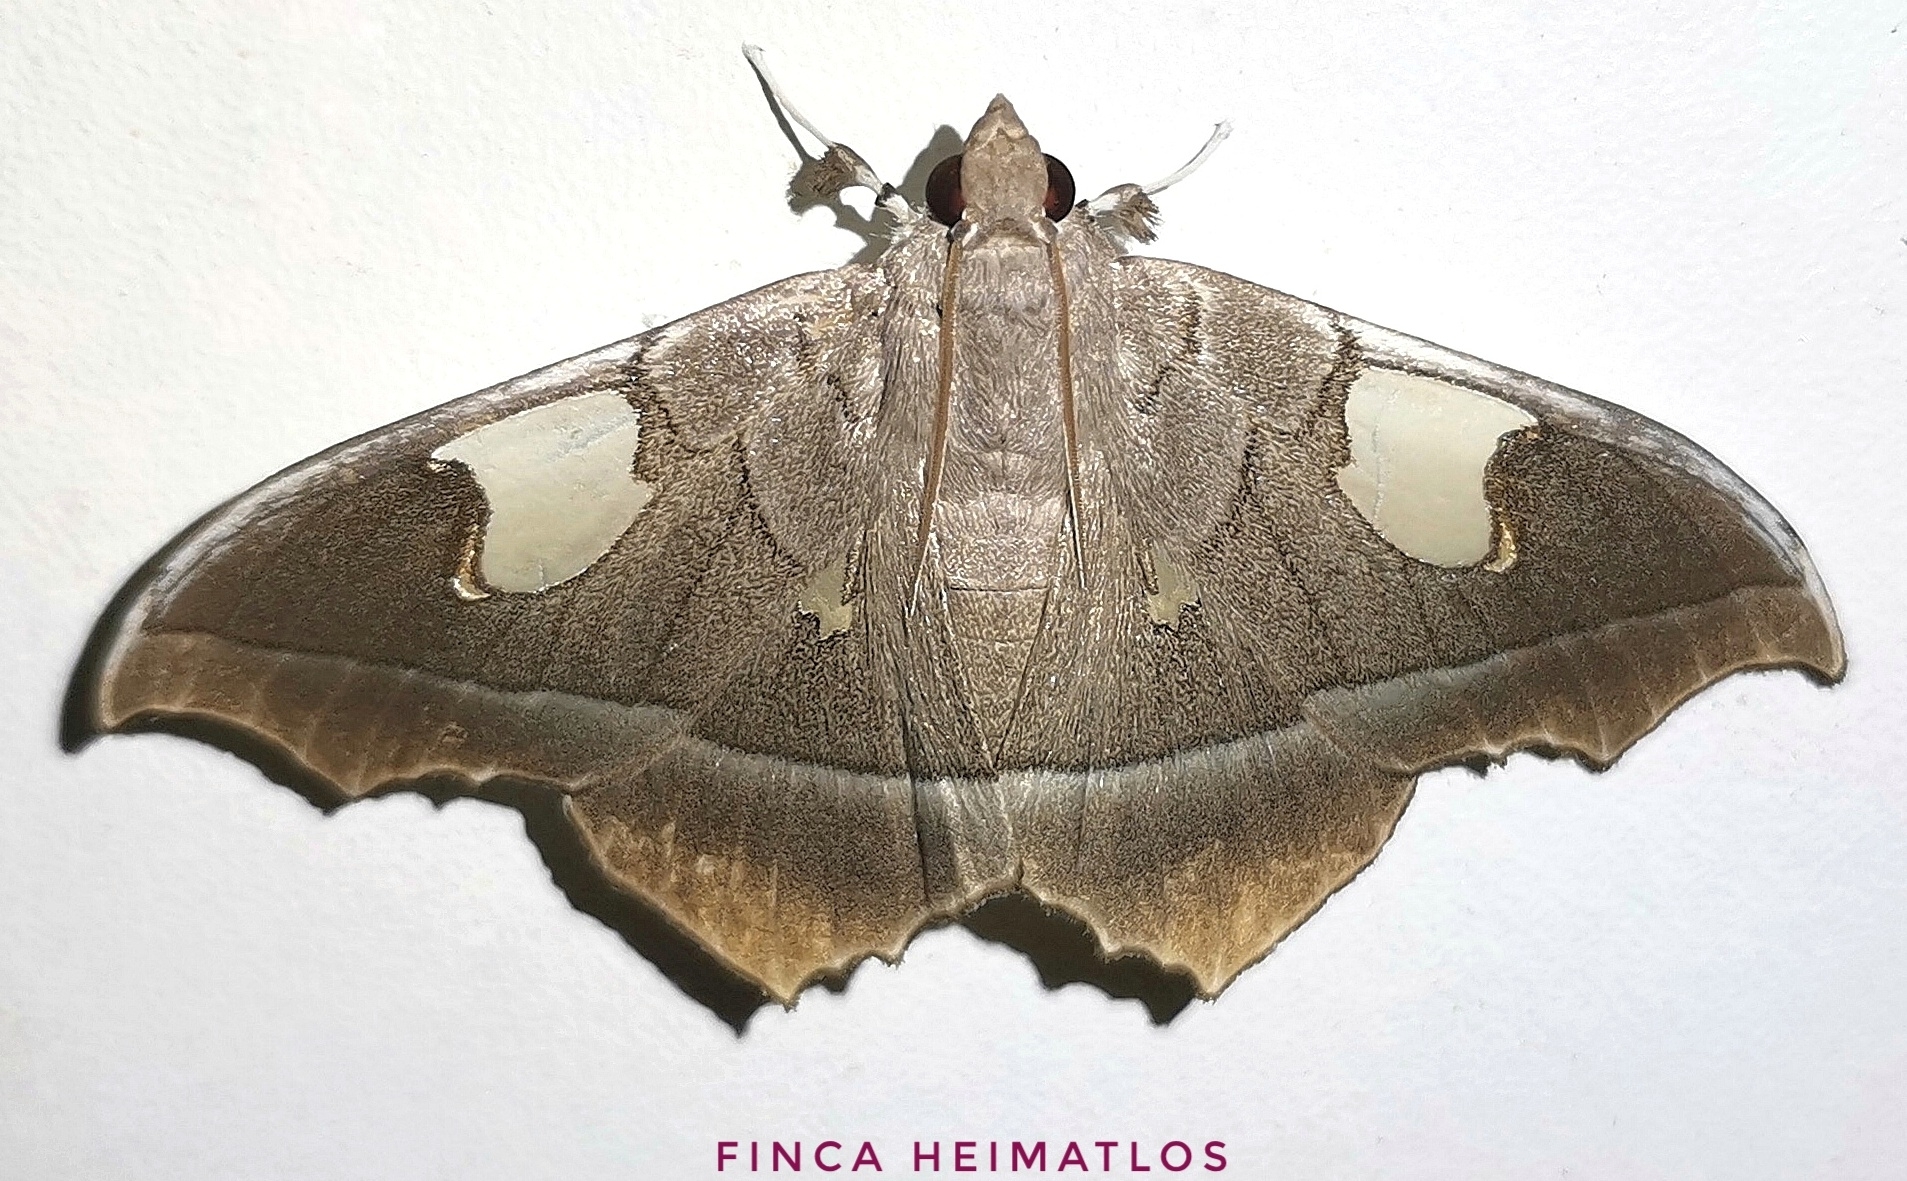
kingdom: Animalia
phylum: Arthropoda
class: Insecta
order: Lepidoptera
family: Crambidae
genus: Midila
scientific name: Midila lamia
